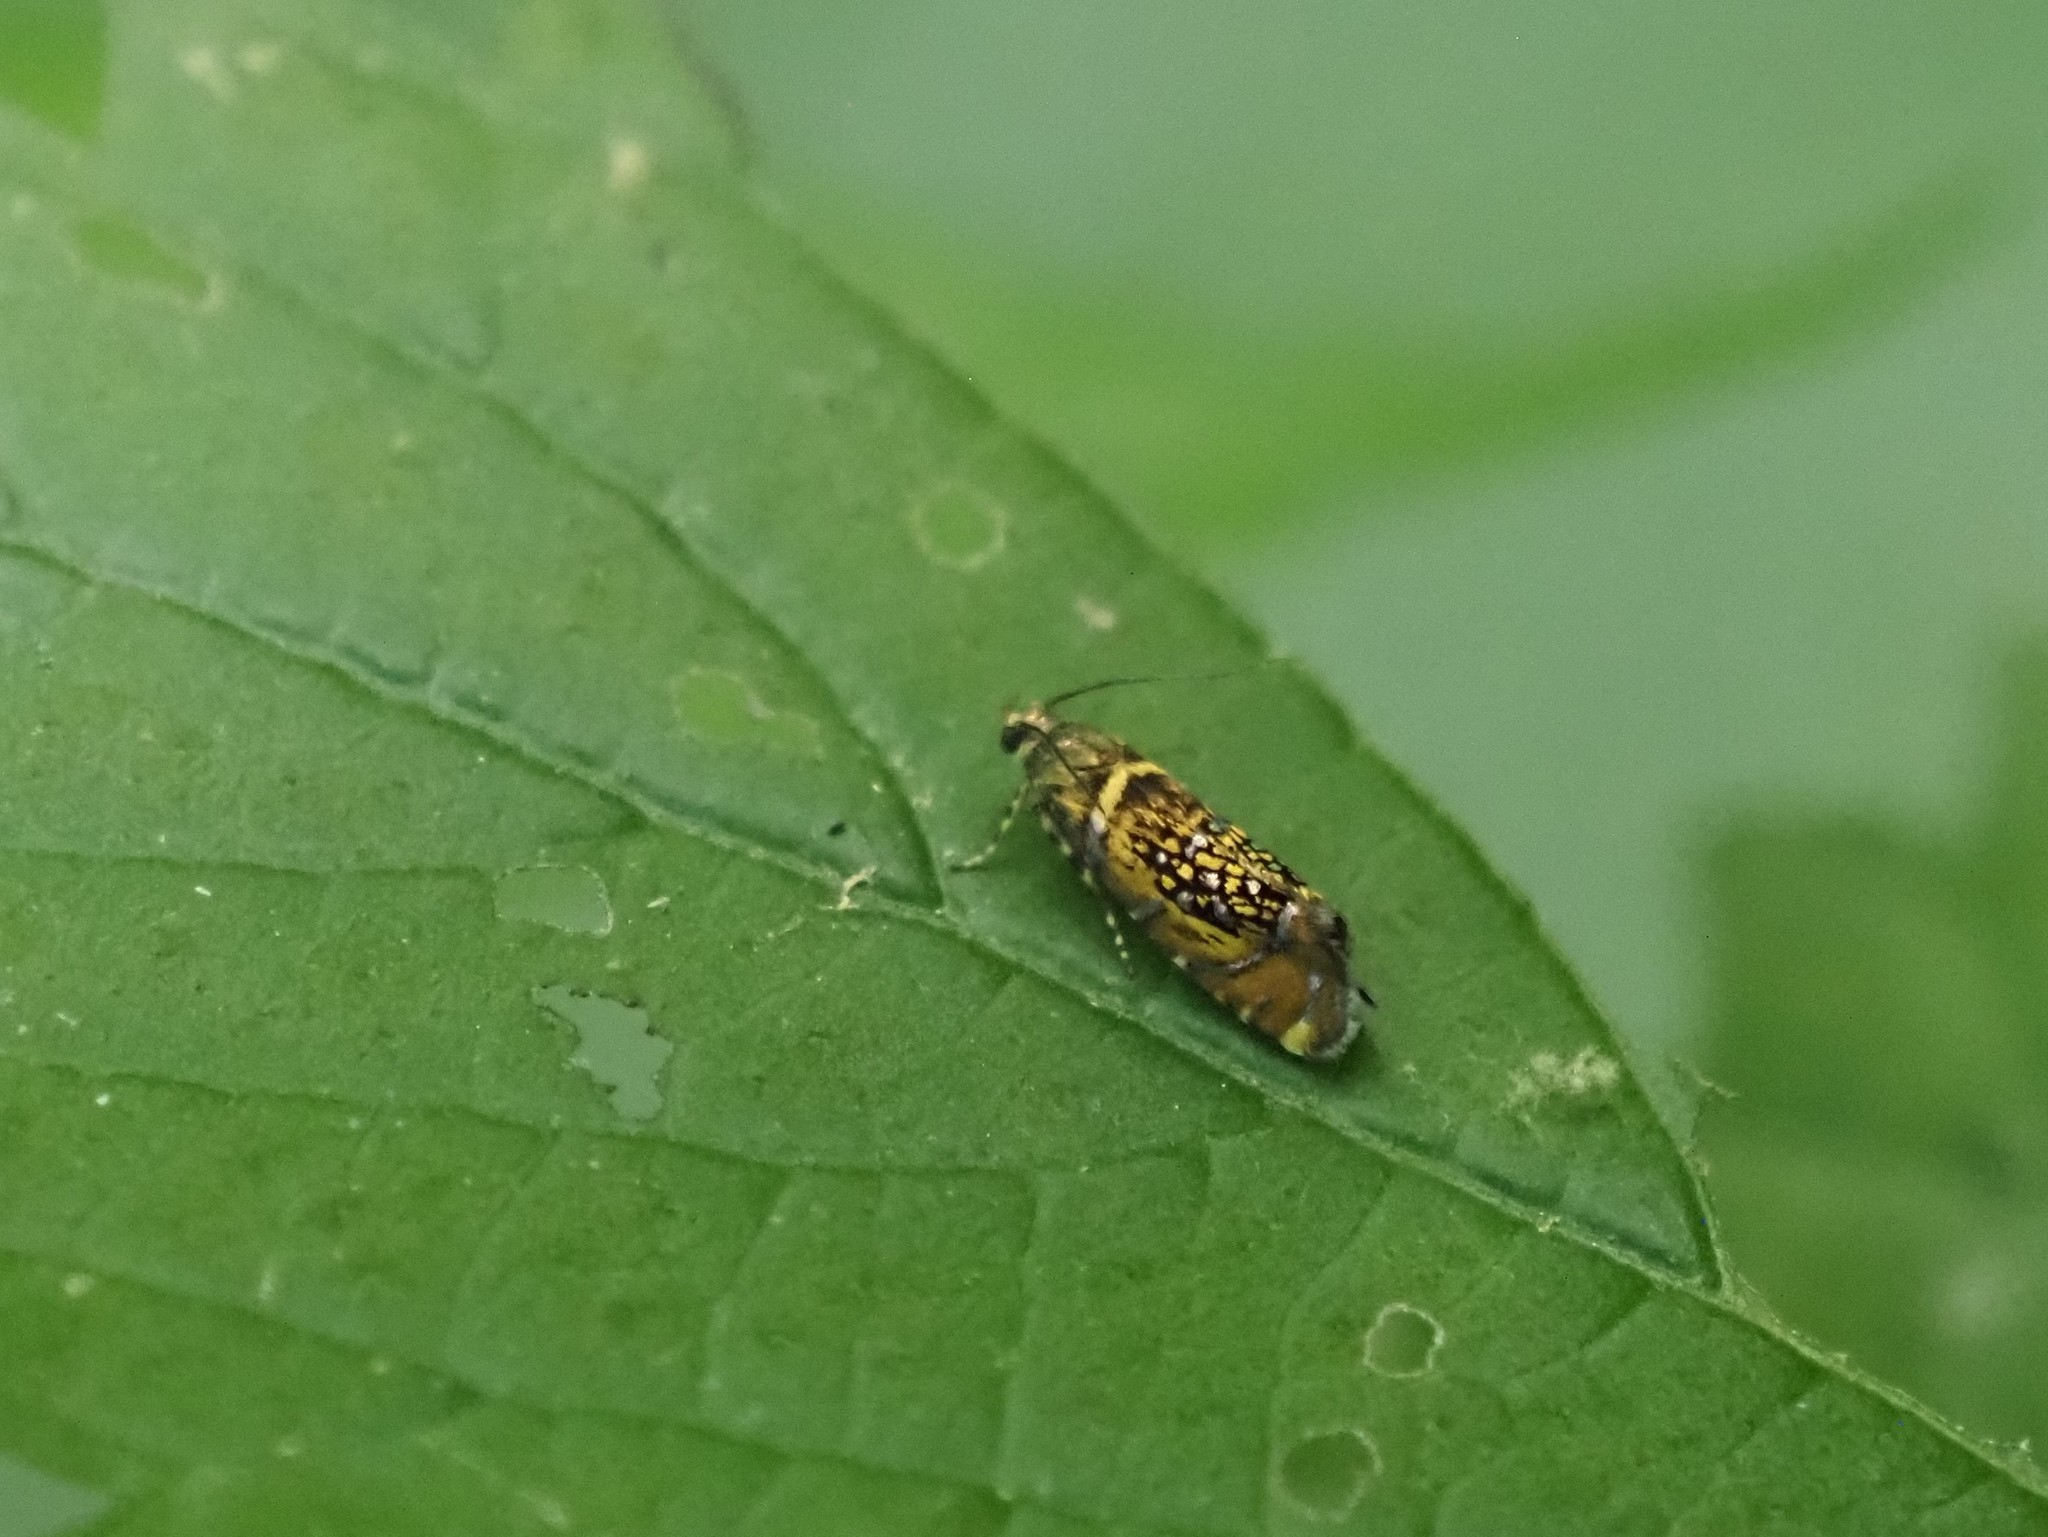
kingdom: Animalia
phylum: Arthropoda
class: Insecta
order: Lepidoptera
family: Glyphipterigidae
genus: Glyphipterix
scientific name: Glyphipterix quadragintapunctata
